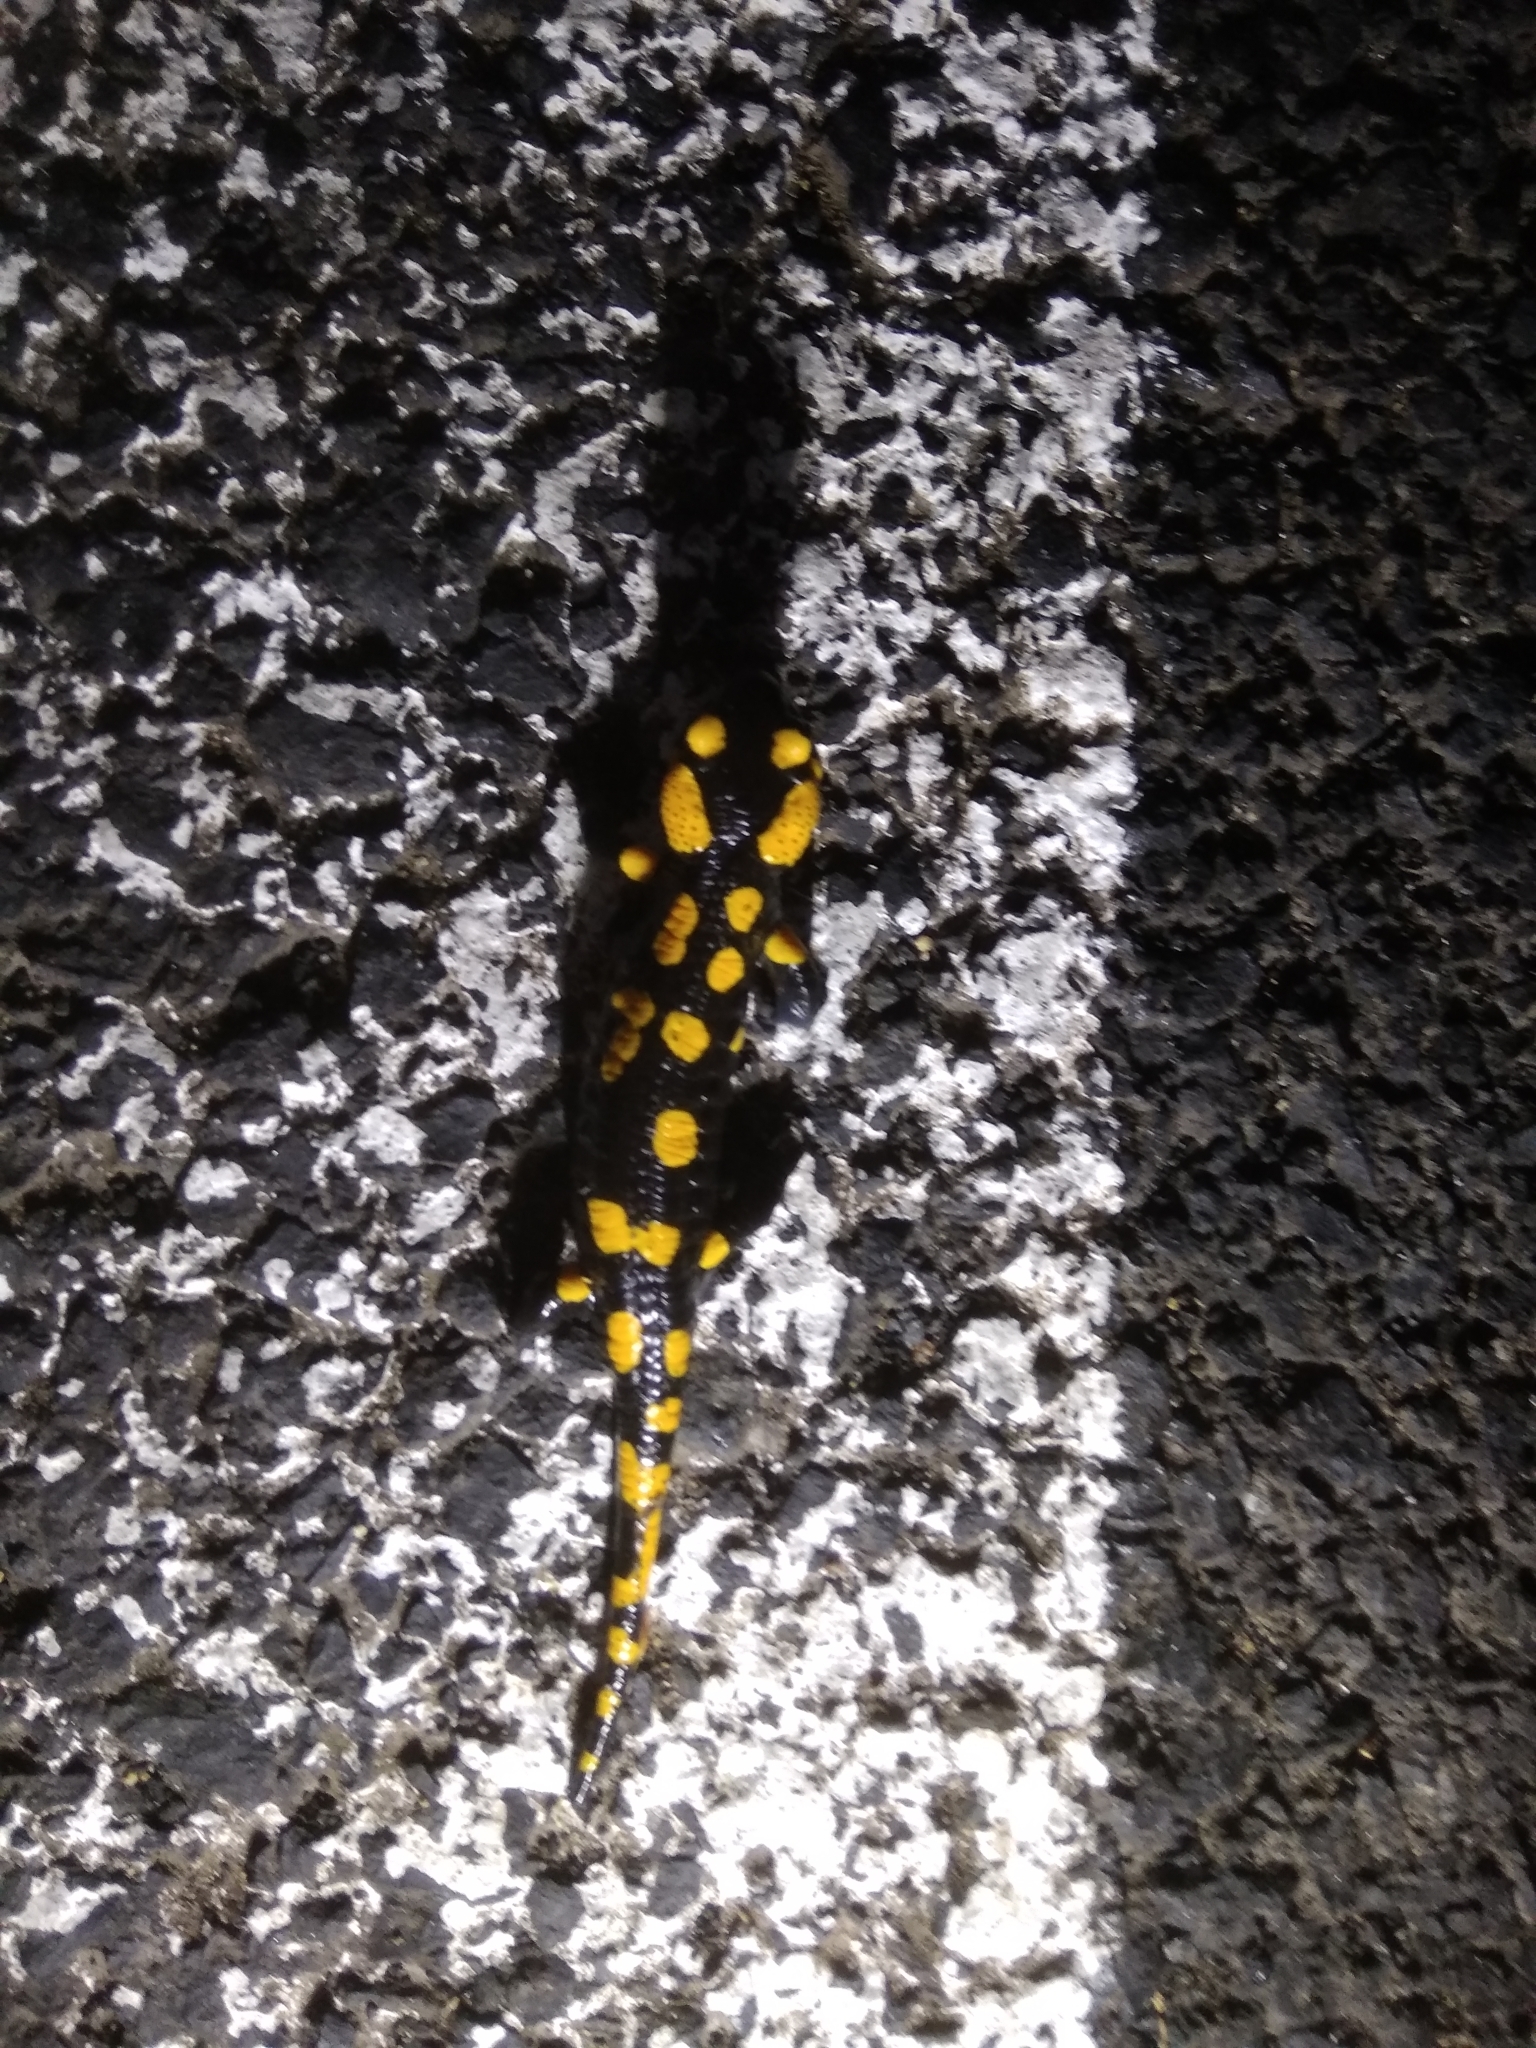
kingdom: Animalia
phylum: Chordata
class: Amphibia
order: Caudata
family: Salamandridae
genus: Salamandra
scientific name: Salamandra salamandra
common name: Fire salamander
